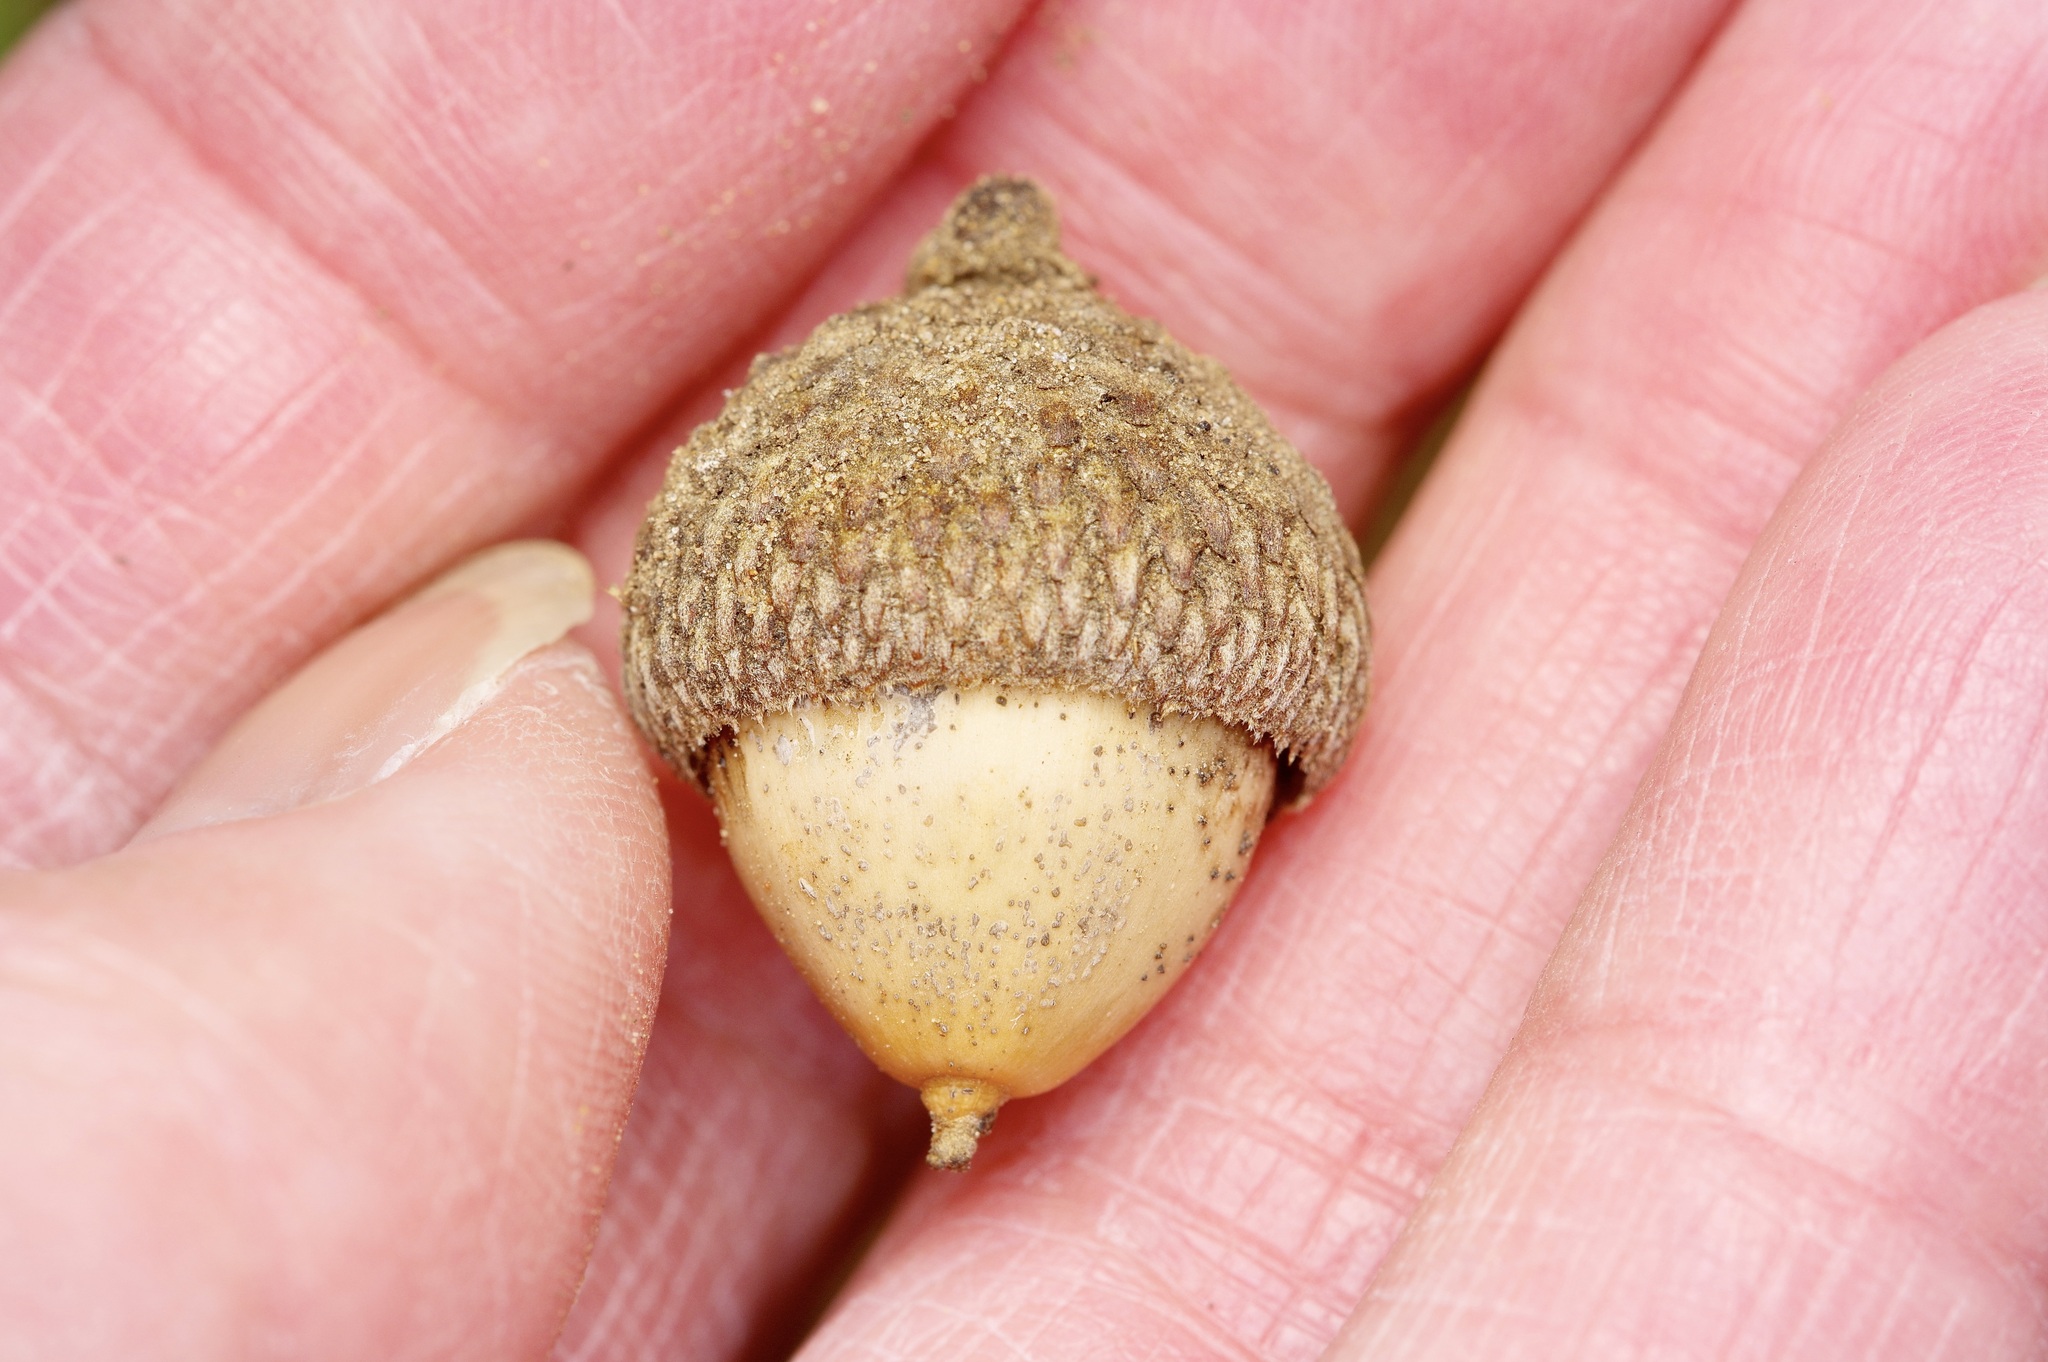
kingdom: Plantae
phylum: Tracheophyta
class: Magnoliopsida
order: Fagales
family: Fagaceae
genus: Quercus
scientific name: Quercus stellata
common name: Post oak
